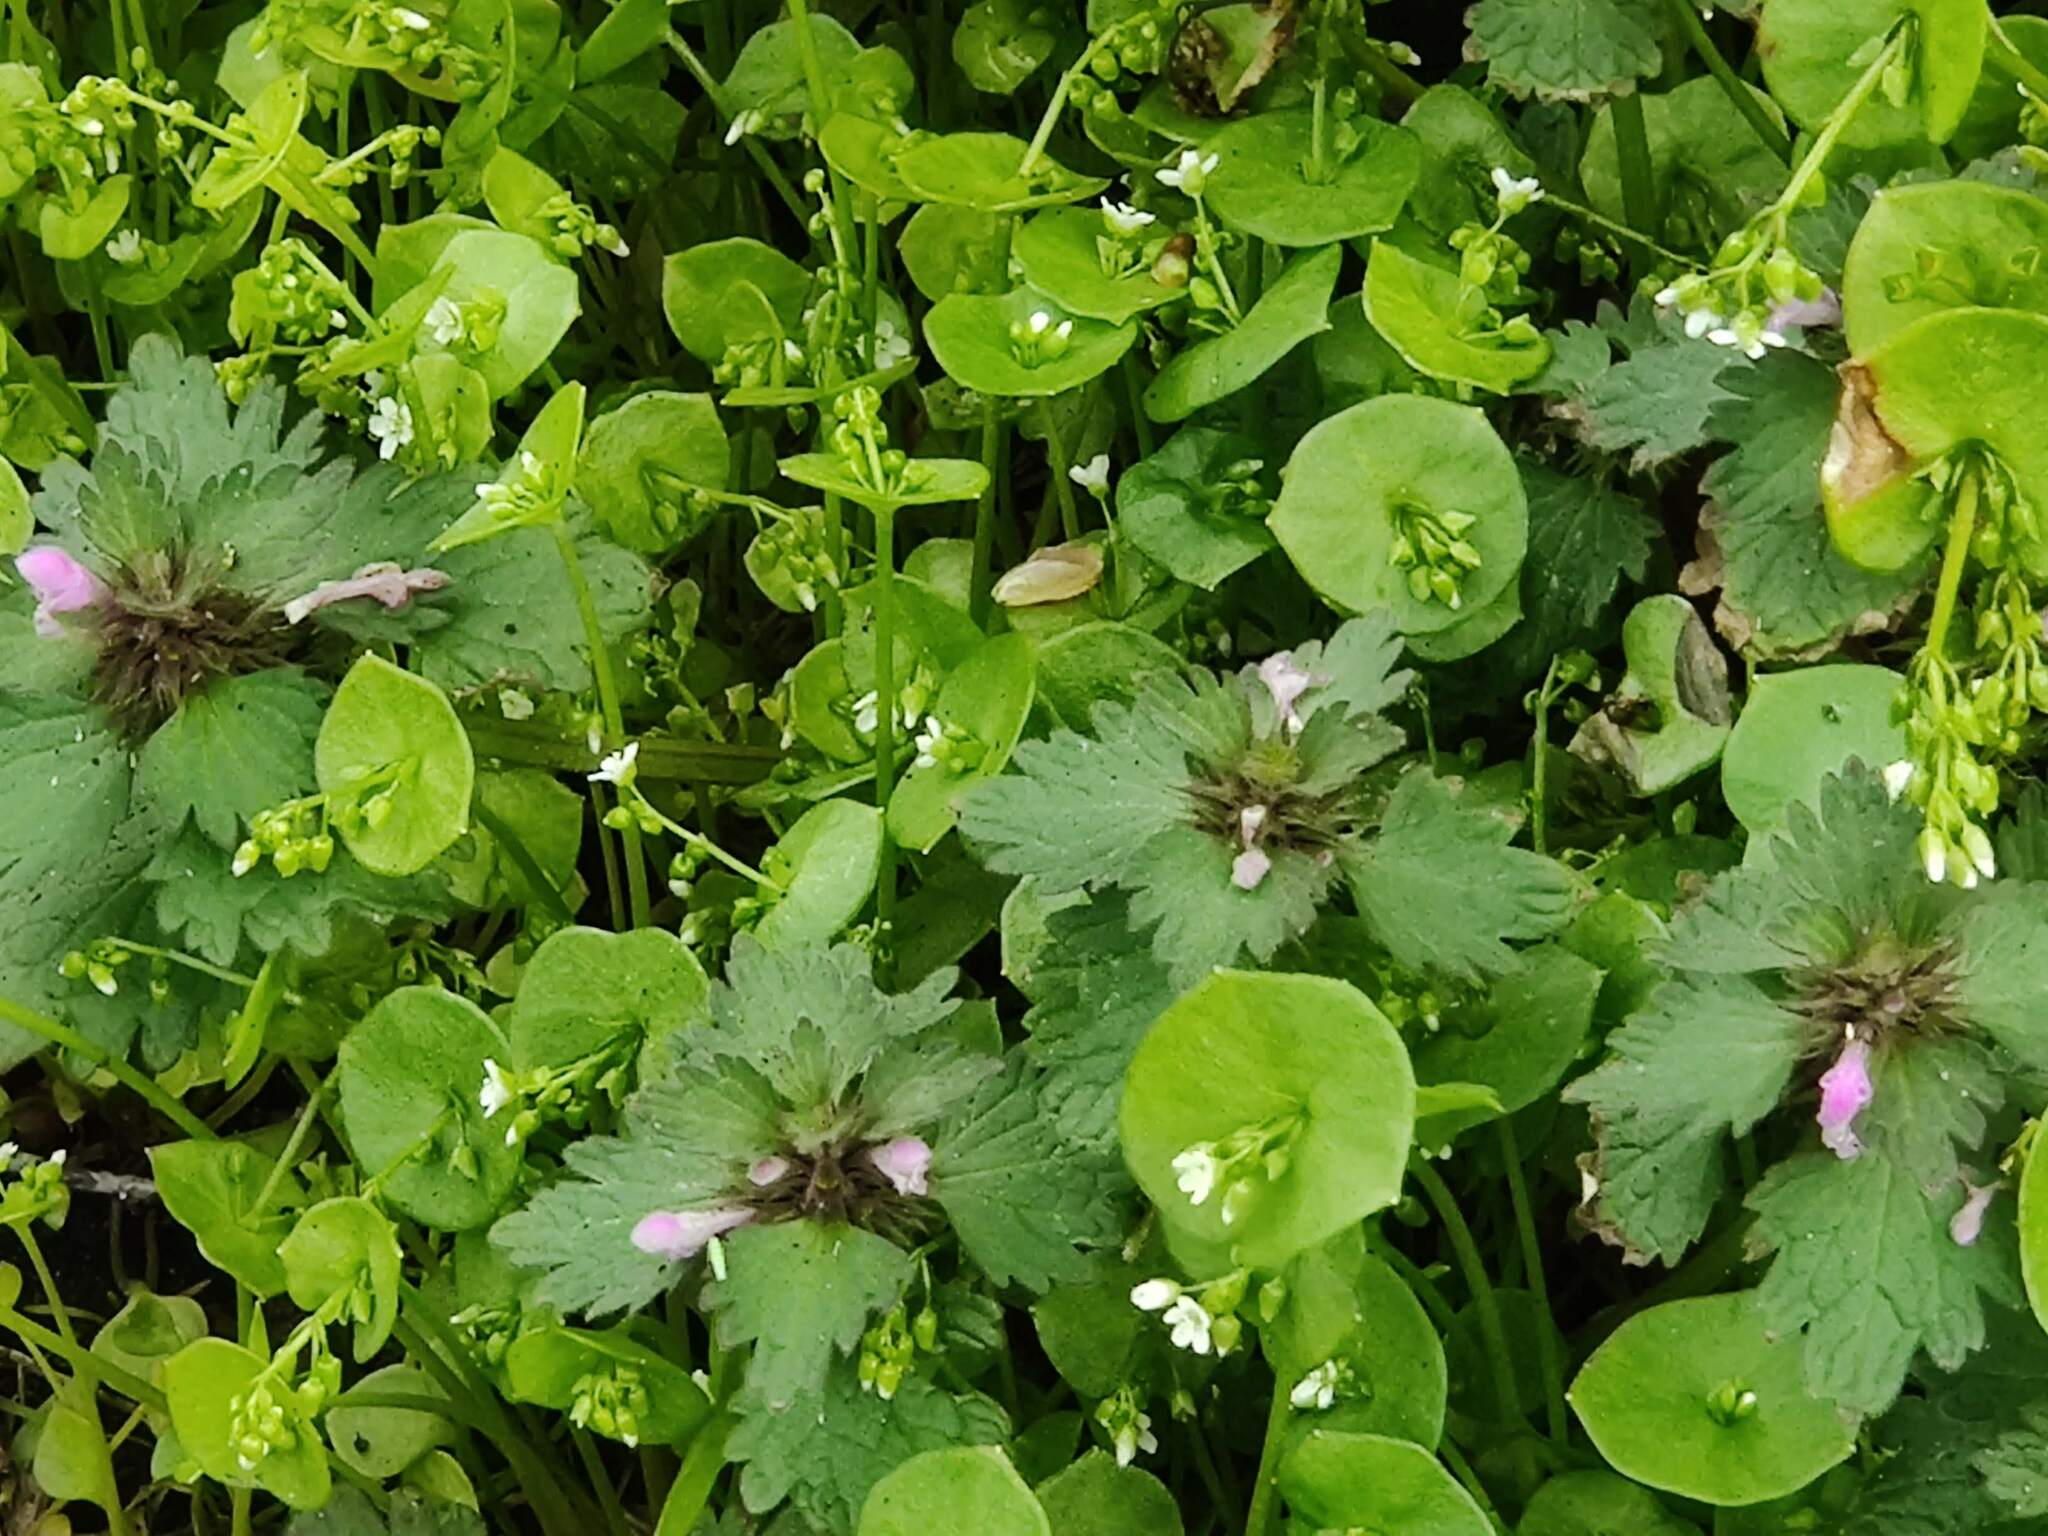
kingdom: Plantae
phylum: Tracheophyta
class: Magnoliopsida
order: Lamiales
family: Lamiaceae
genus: Lamium
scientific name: Lamium hybridum
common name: Cut-leaved dead-nettle
